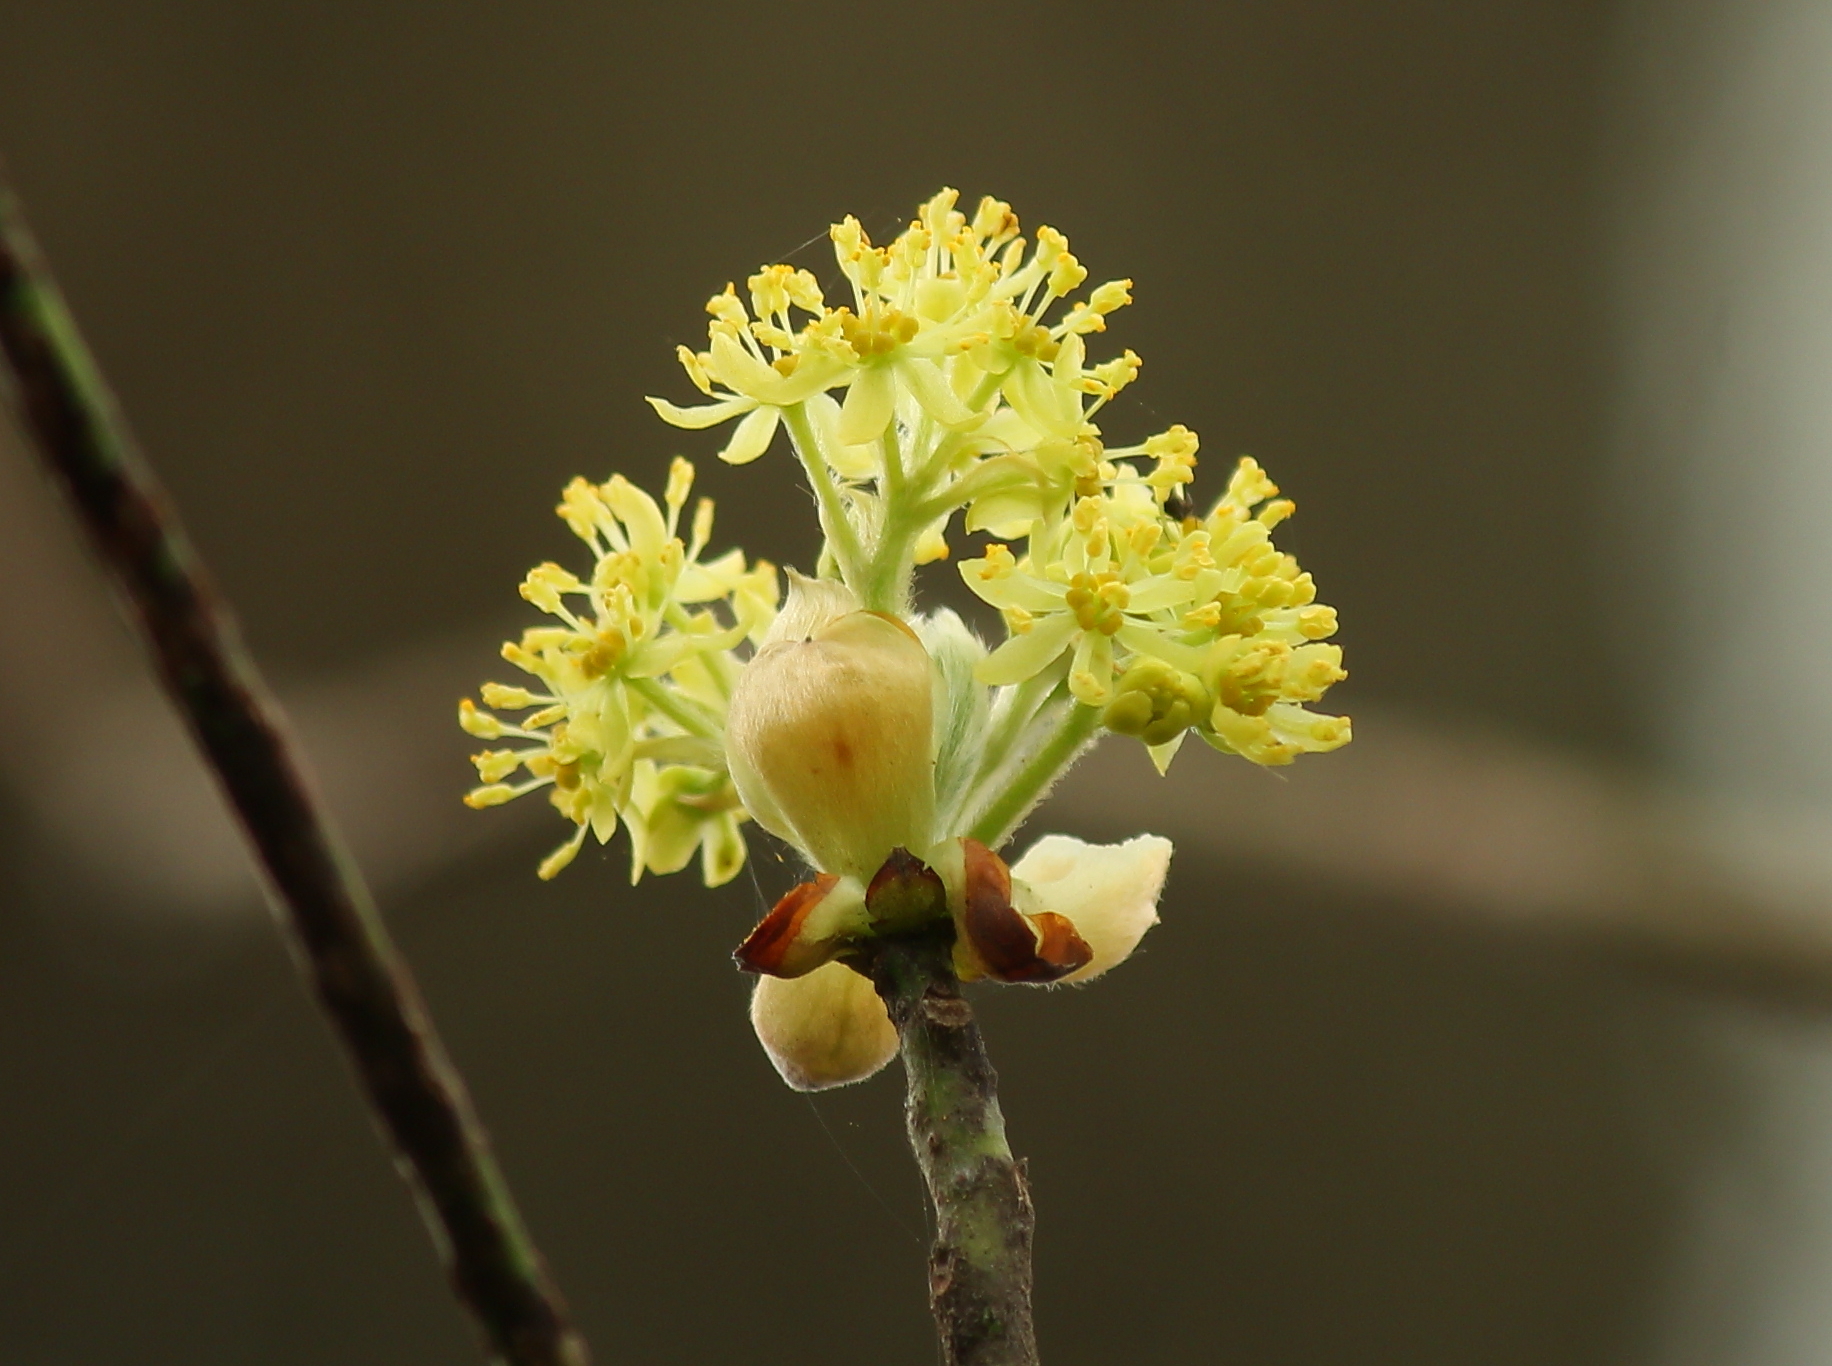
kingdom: Plantae
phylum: Tracheophyta
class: Magnoliopsida
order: Laurales
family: Lauraceae
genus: Sassafras
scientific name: Sassafras albidum
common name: Sassafras
